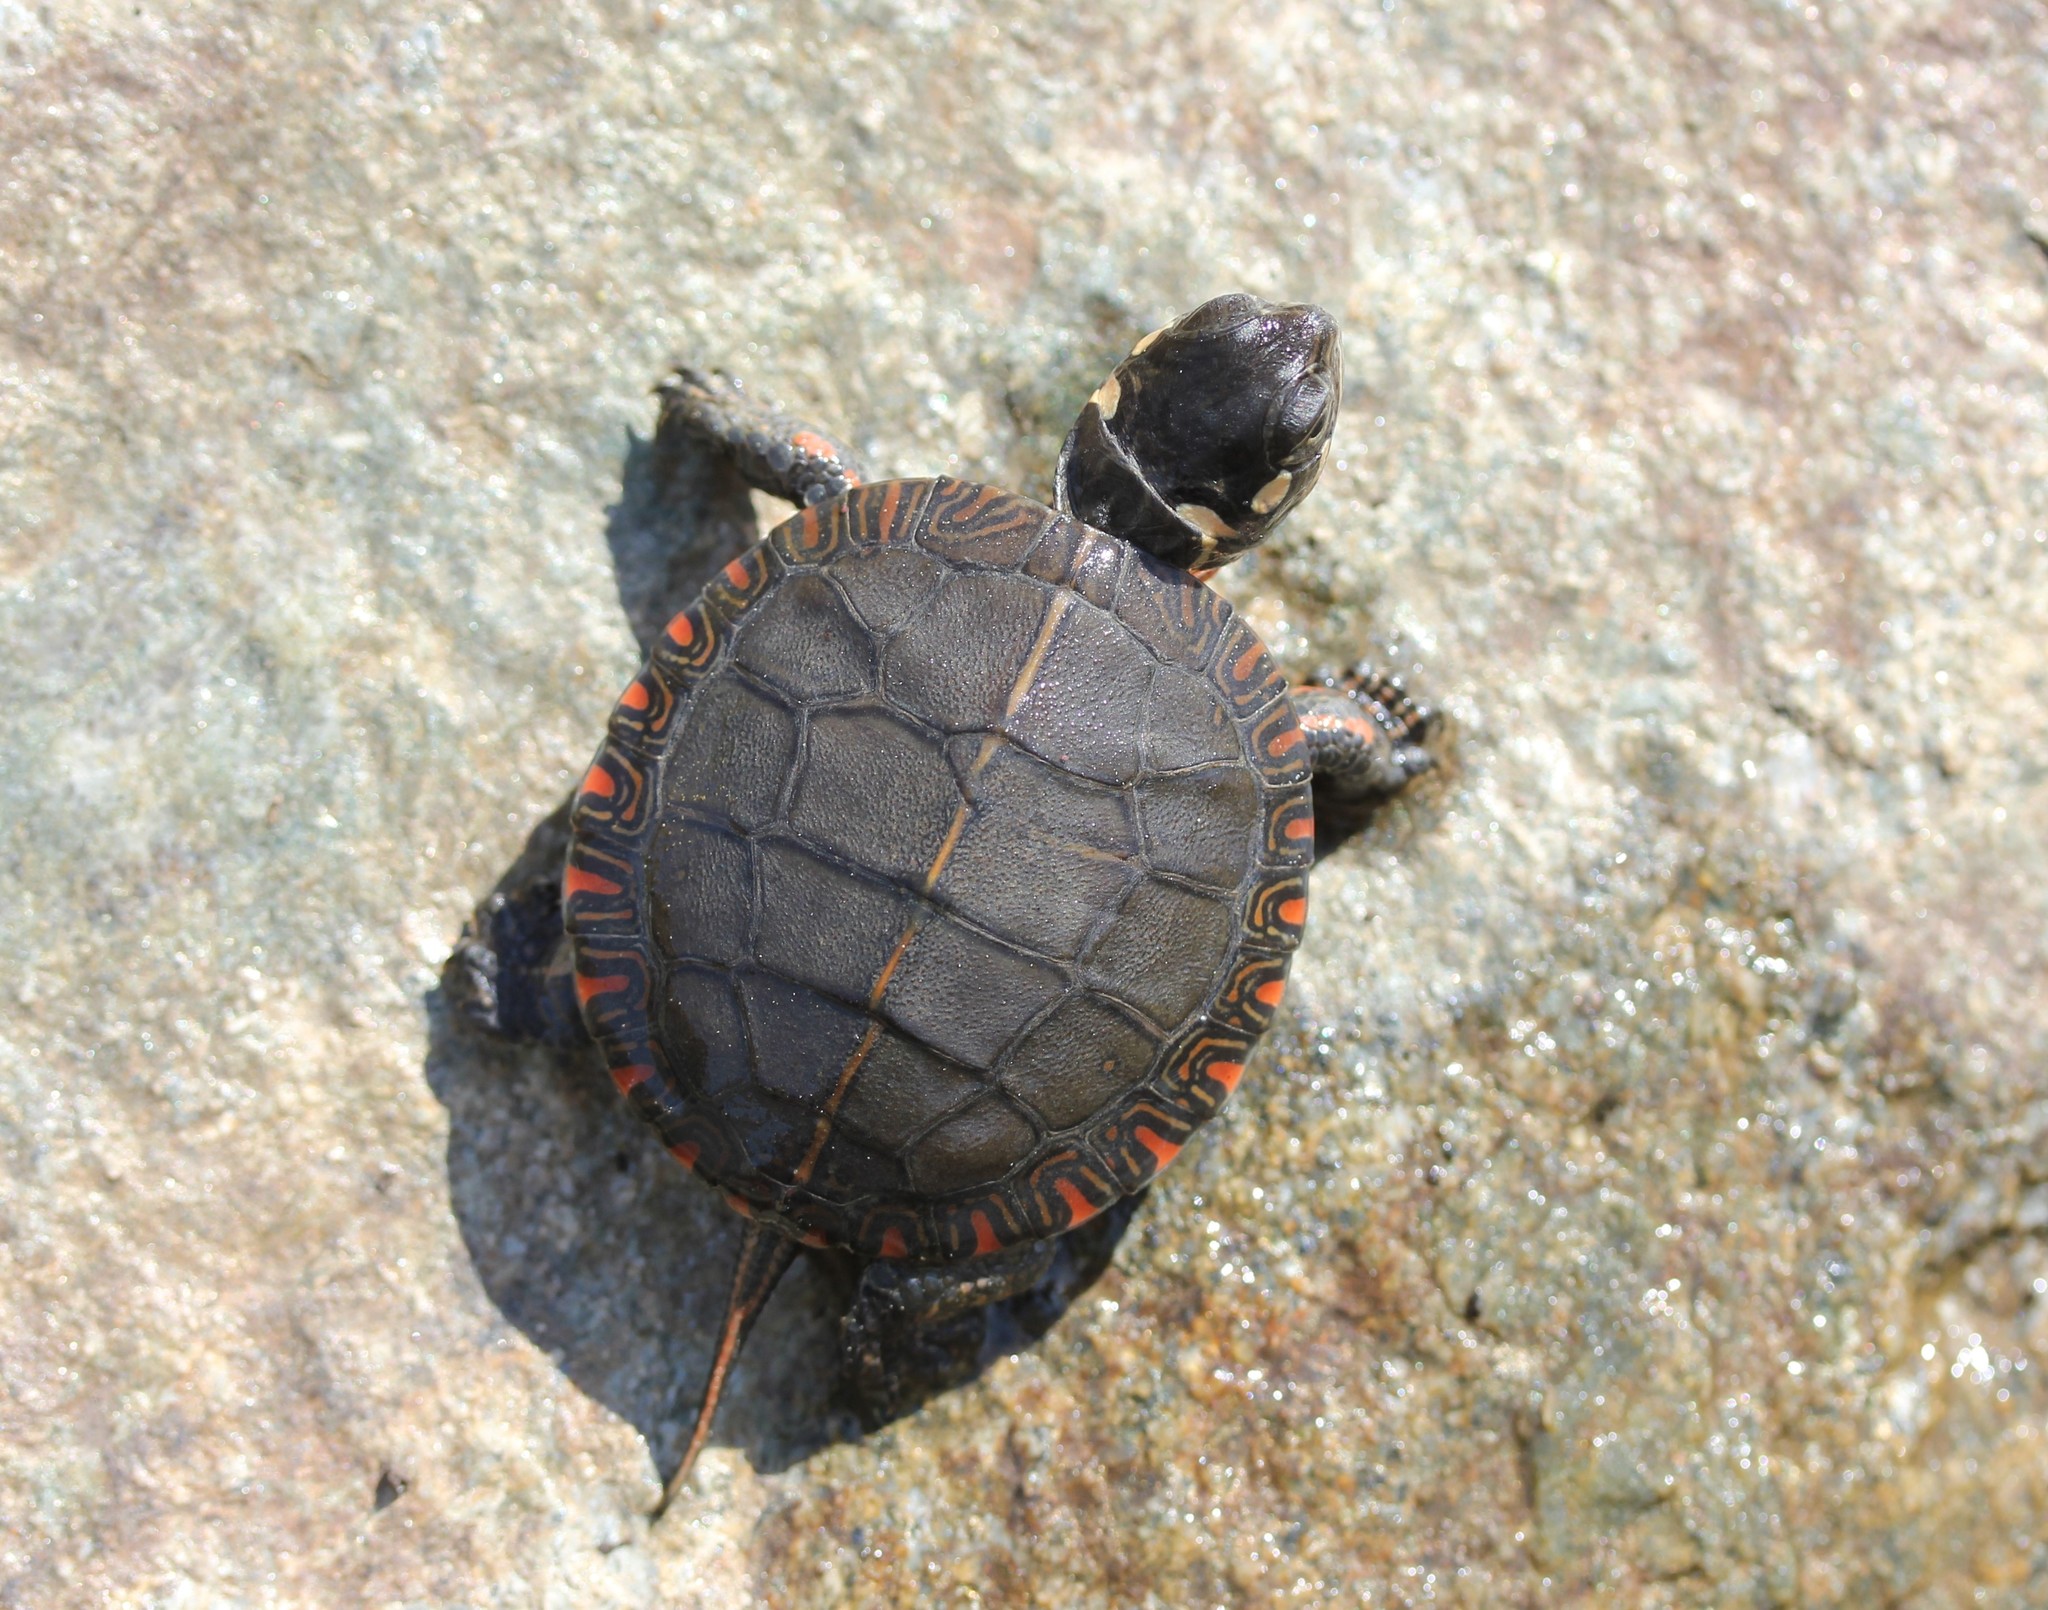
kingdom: Animalia
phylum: Chordata
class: Testudines
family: Emydidae
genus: Chrysemys
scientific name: Chrysemys picta
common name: Painted turtle
